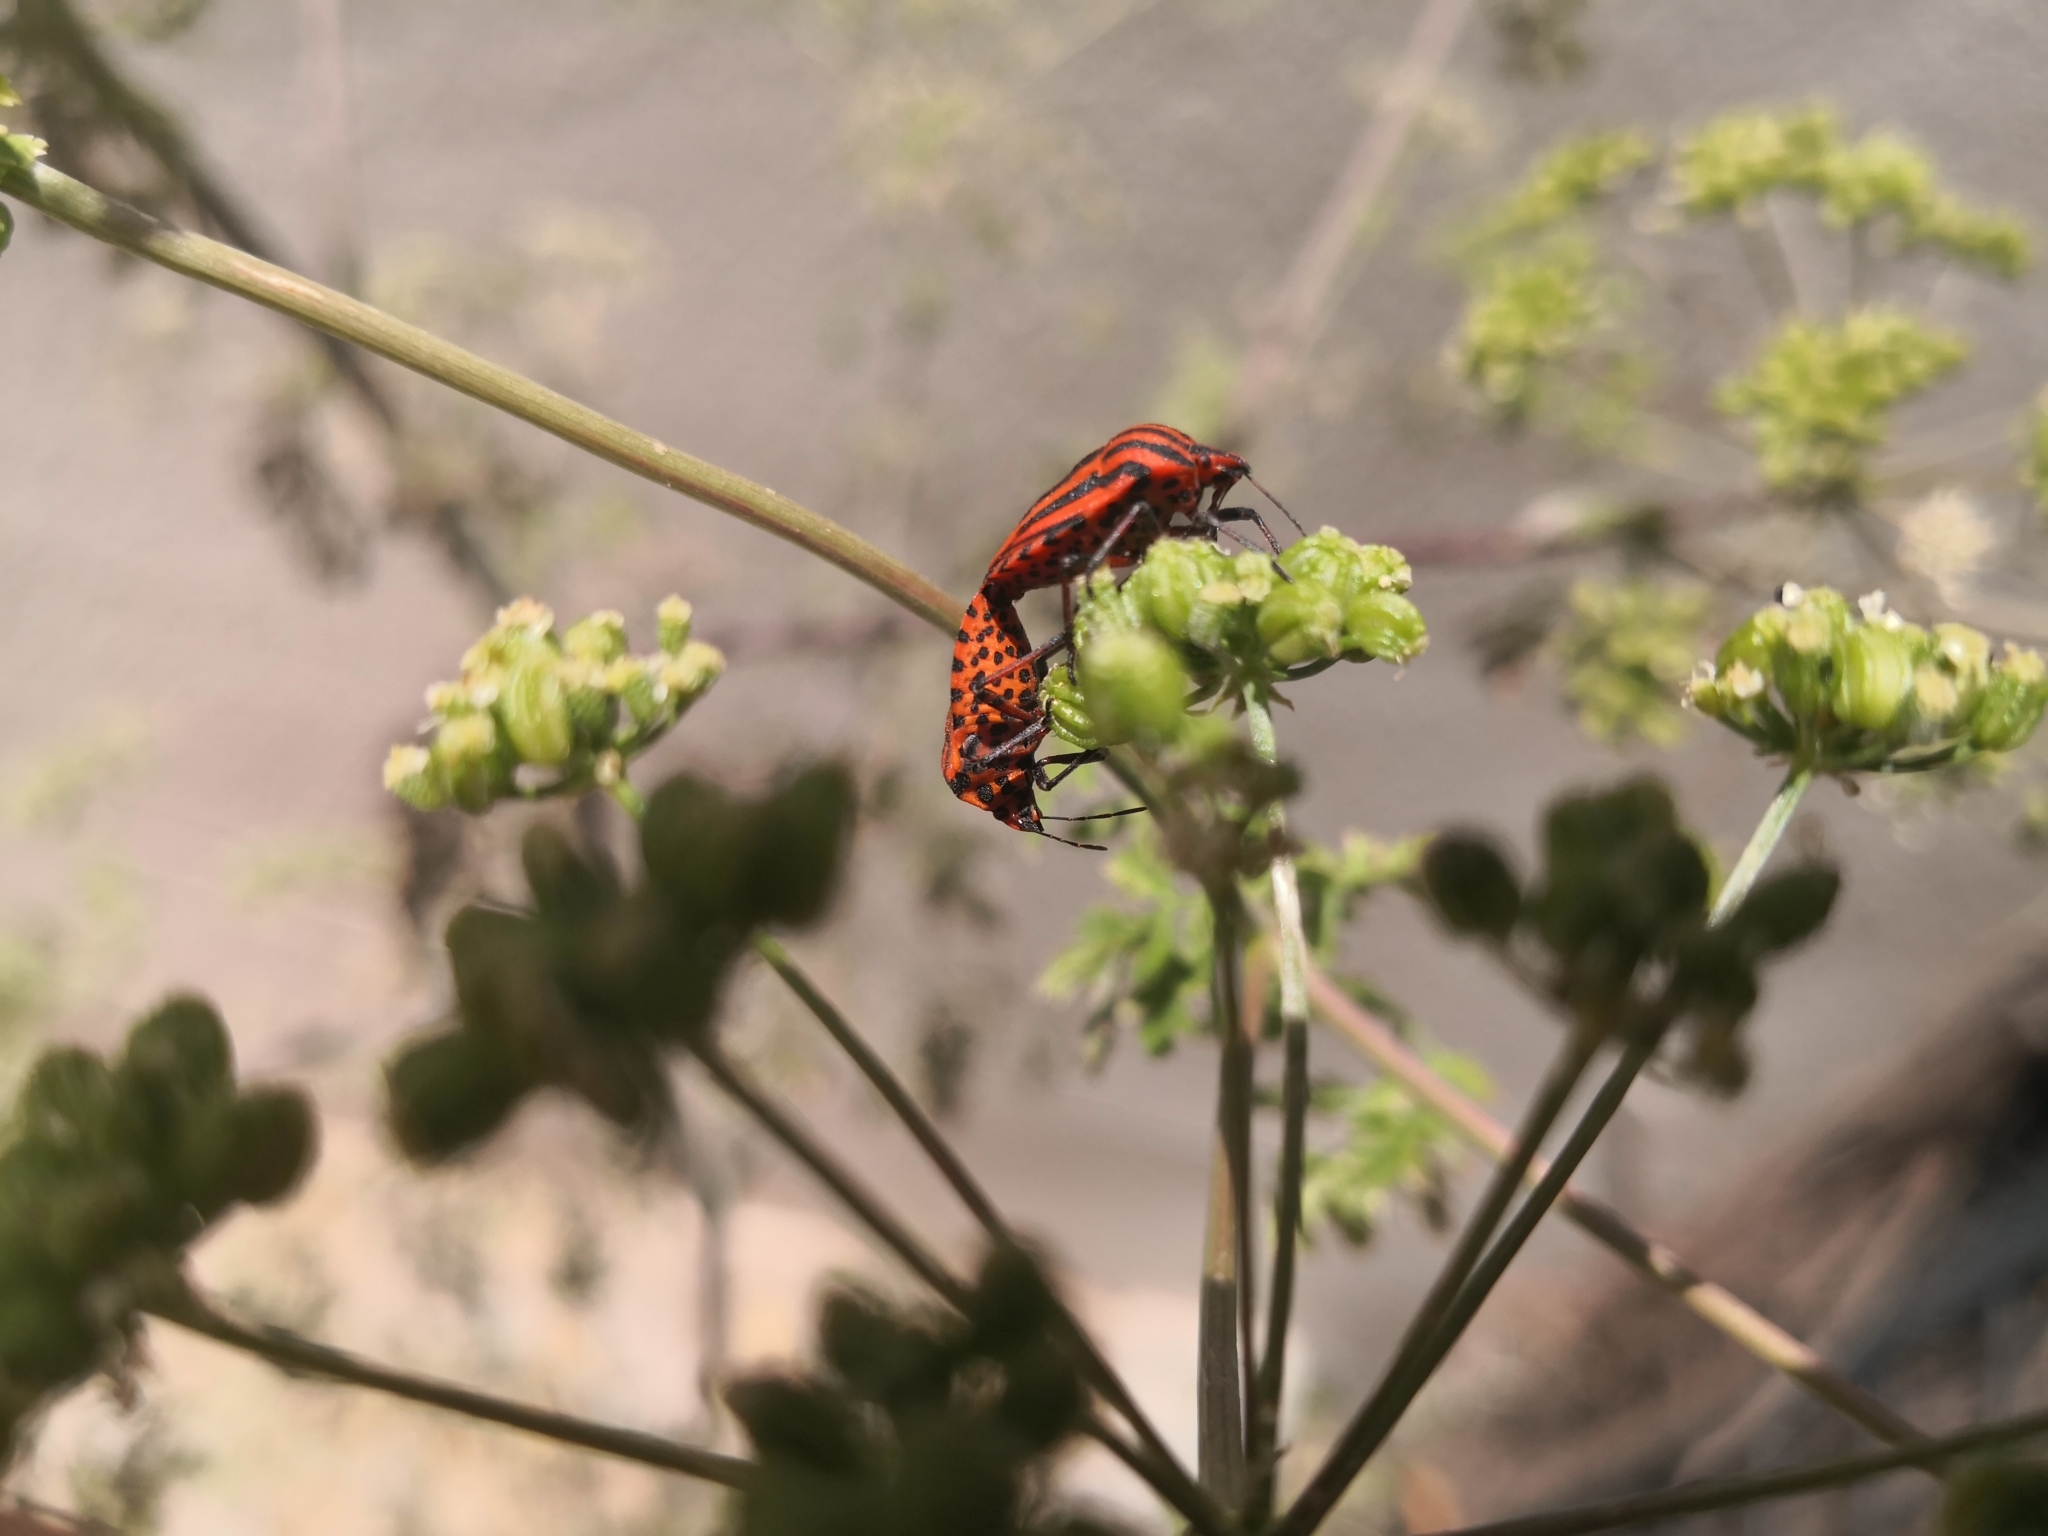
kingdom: Animalia
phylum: Arthropoda
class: Insecta
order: Hemiptera
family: Pentatomidae
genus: Graphosoma
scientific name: Graphosoma italicum
